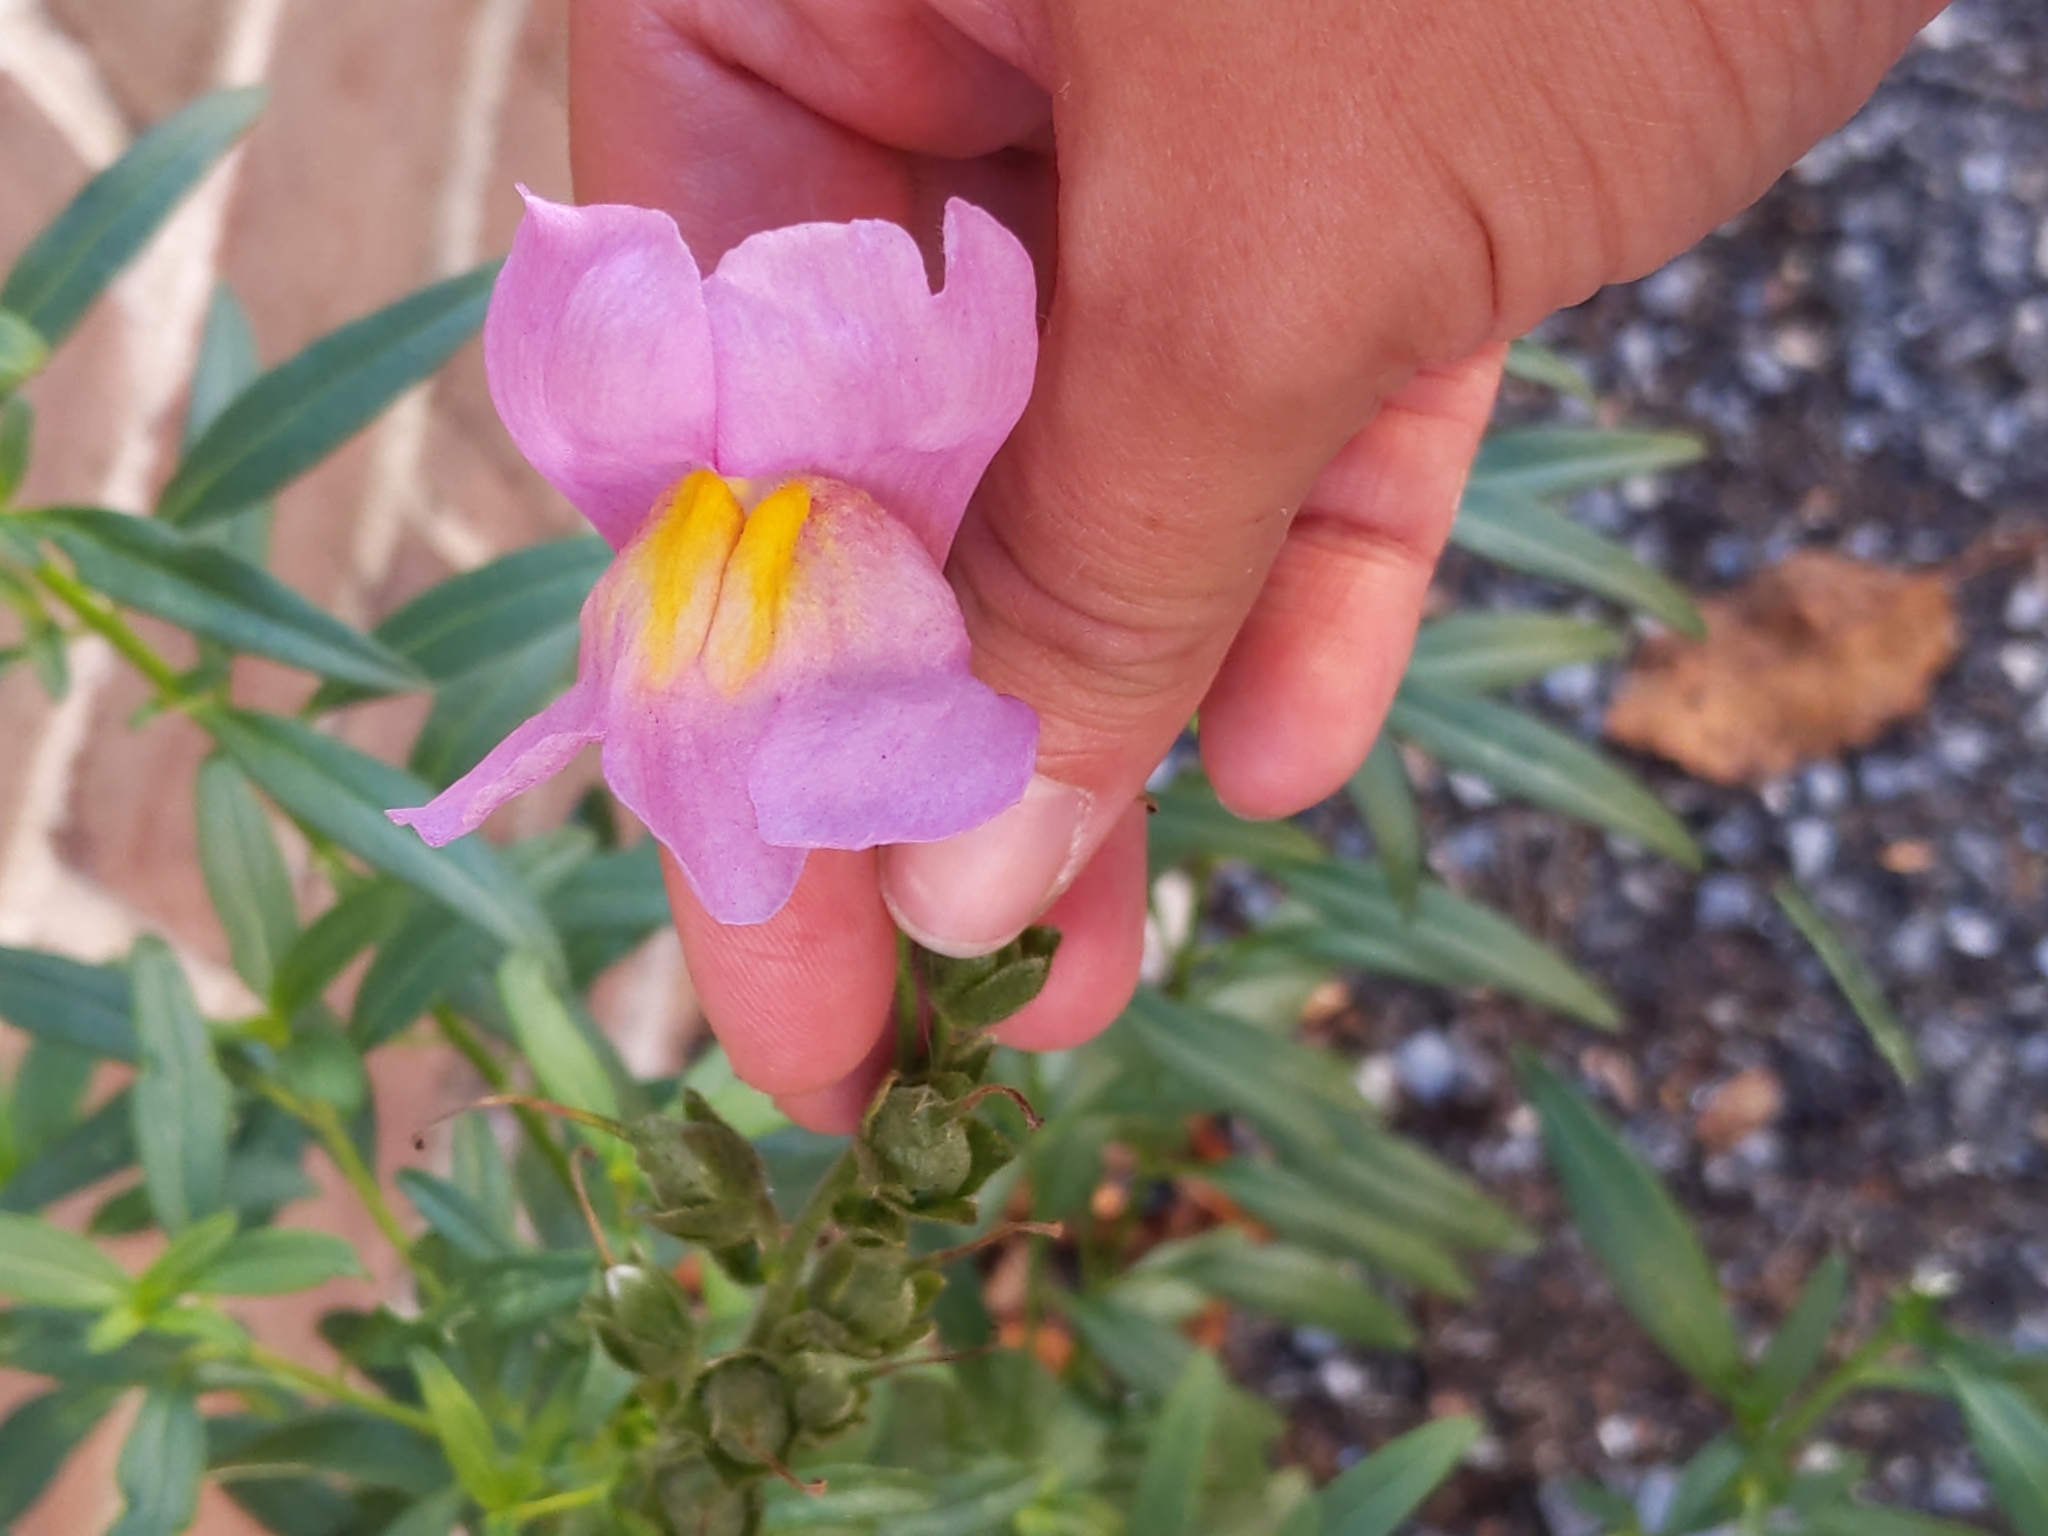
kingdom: Plantae
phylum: Tracheophyta
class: Magnoliopsida
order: Lamiales
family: Plantaginaceae
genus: Antirrhinum
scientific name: Antirrhinum majus
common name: Snapdragon
